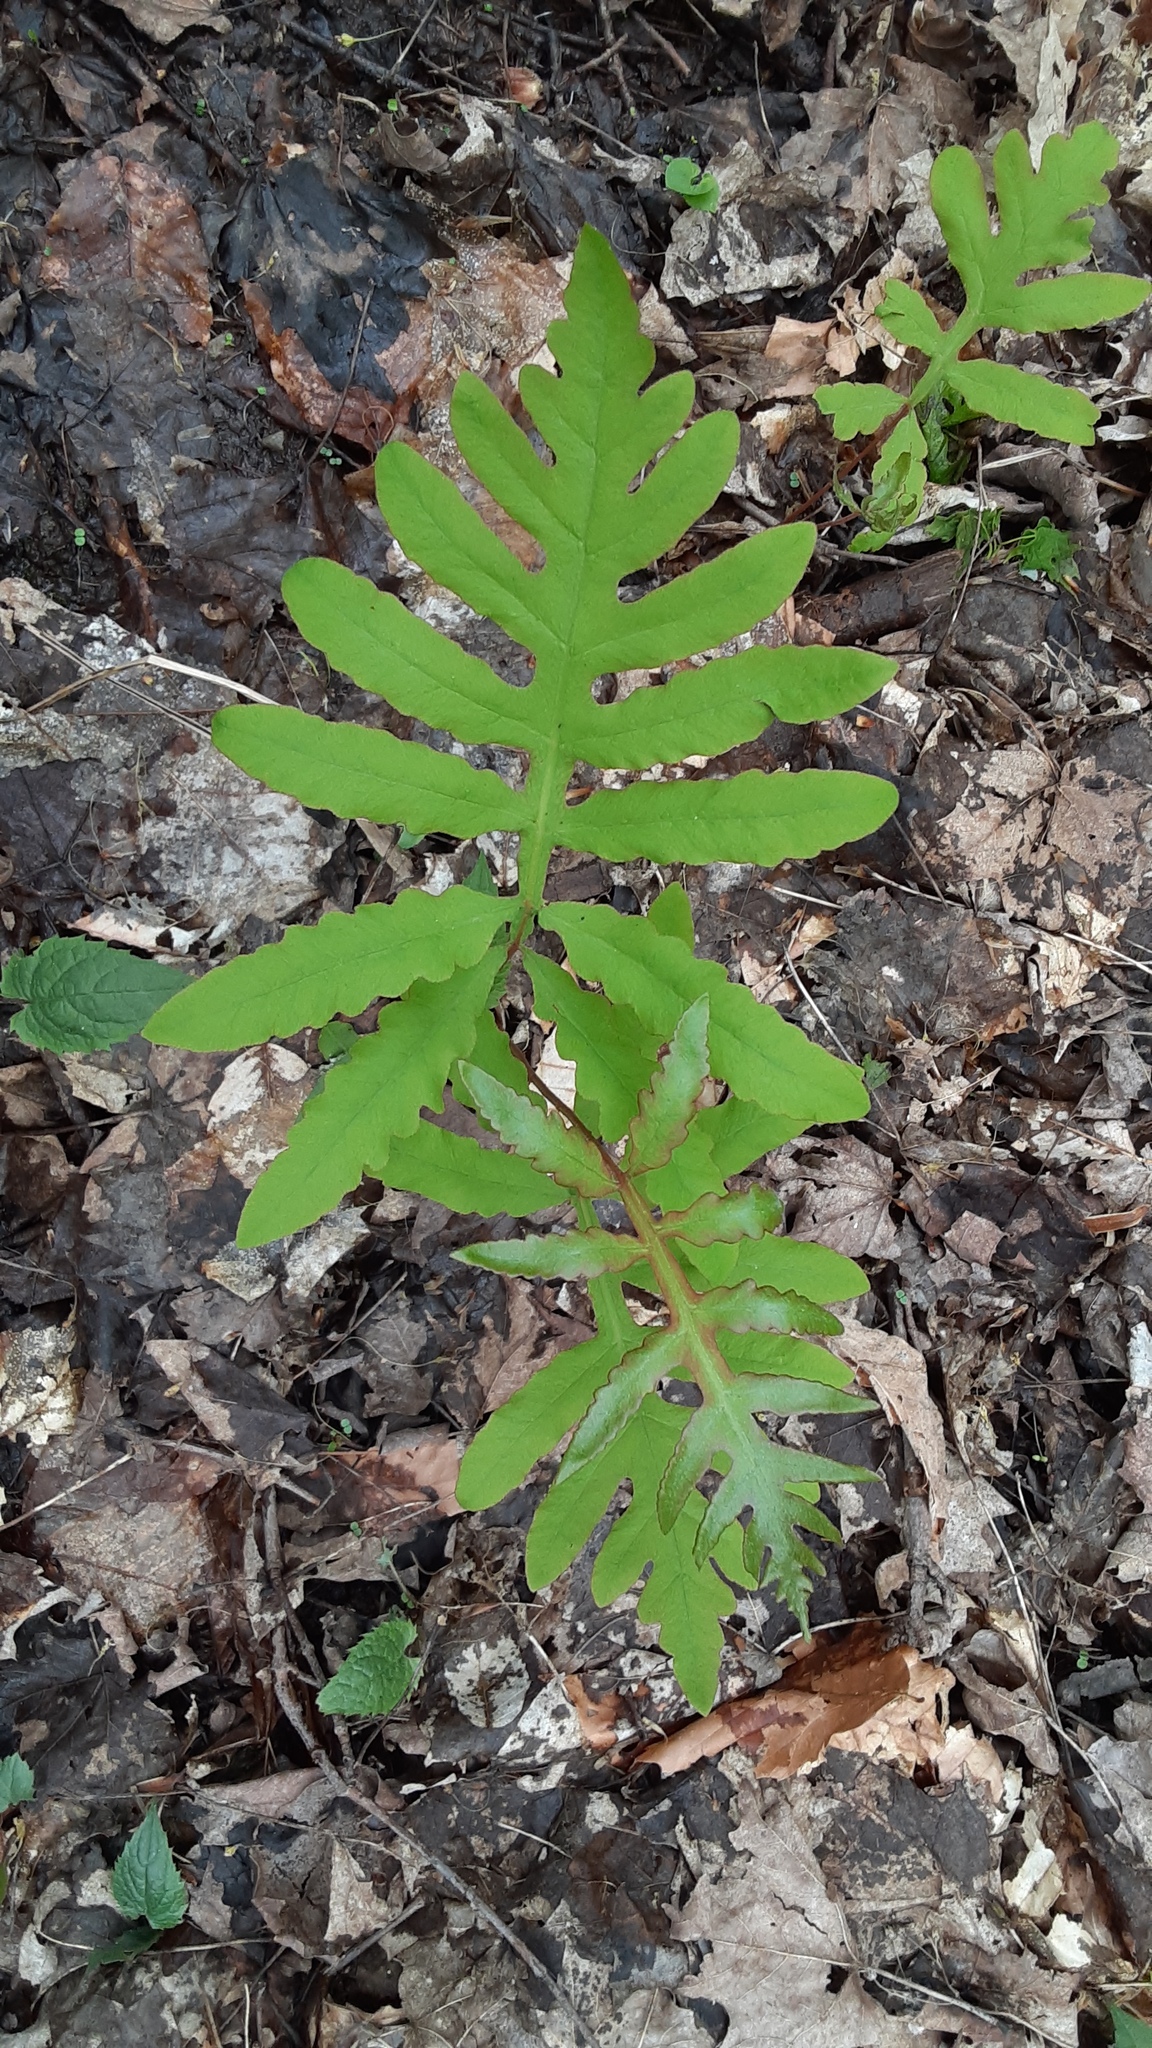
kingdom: Plantae
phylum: Tracheophyta
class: Polypodiopsida
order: Polypodiales
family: Onocleaceae
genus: Onoclea
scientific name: Onoclea sensibilis
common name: Sensitive fern
